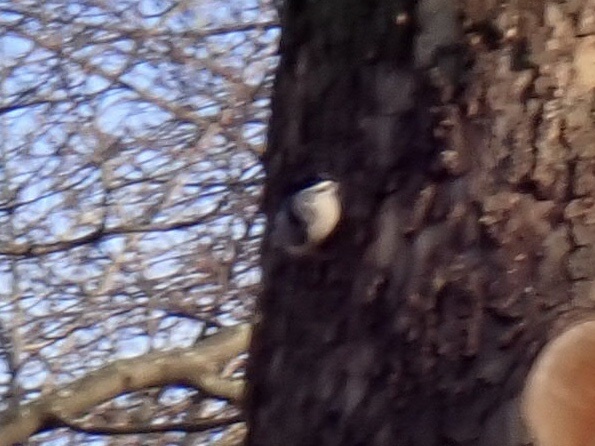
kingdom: Animalia
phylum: Chordata
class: Aves
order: Passeriformes
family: Sittidae
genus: Sitta
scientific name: Sitta carolinensis
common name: White-breasted nuthatch
